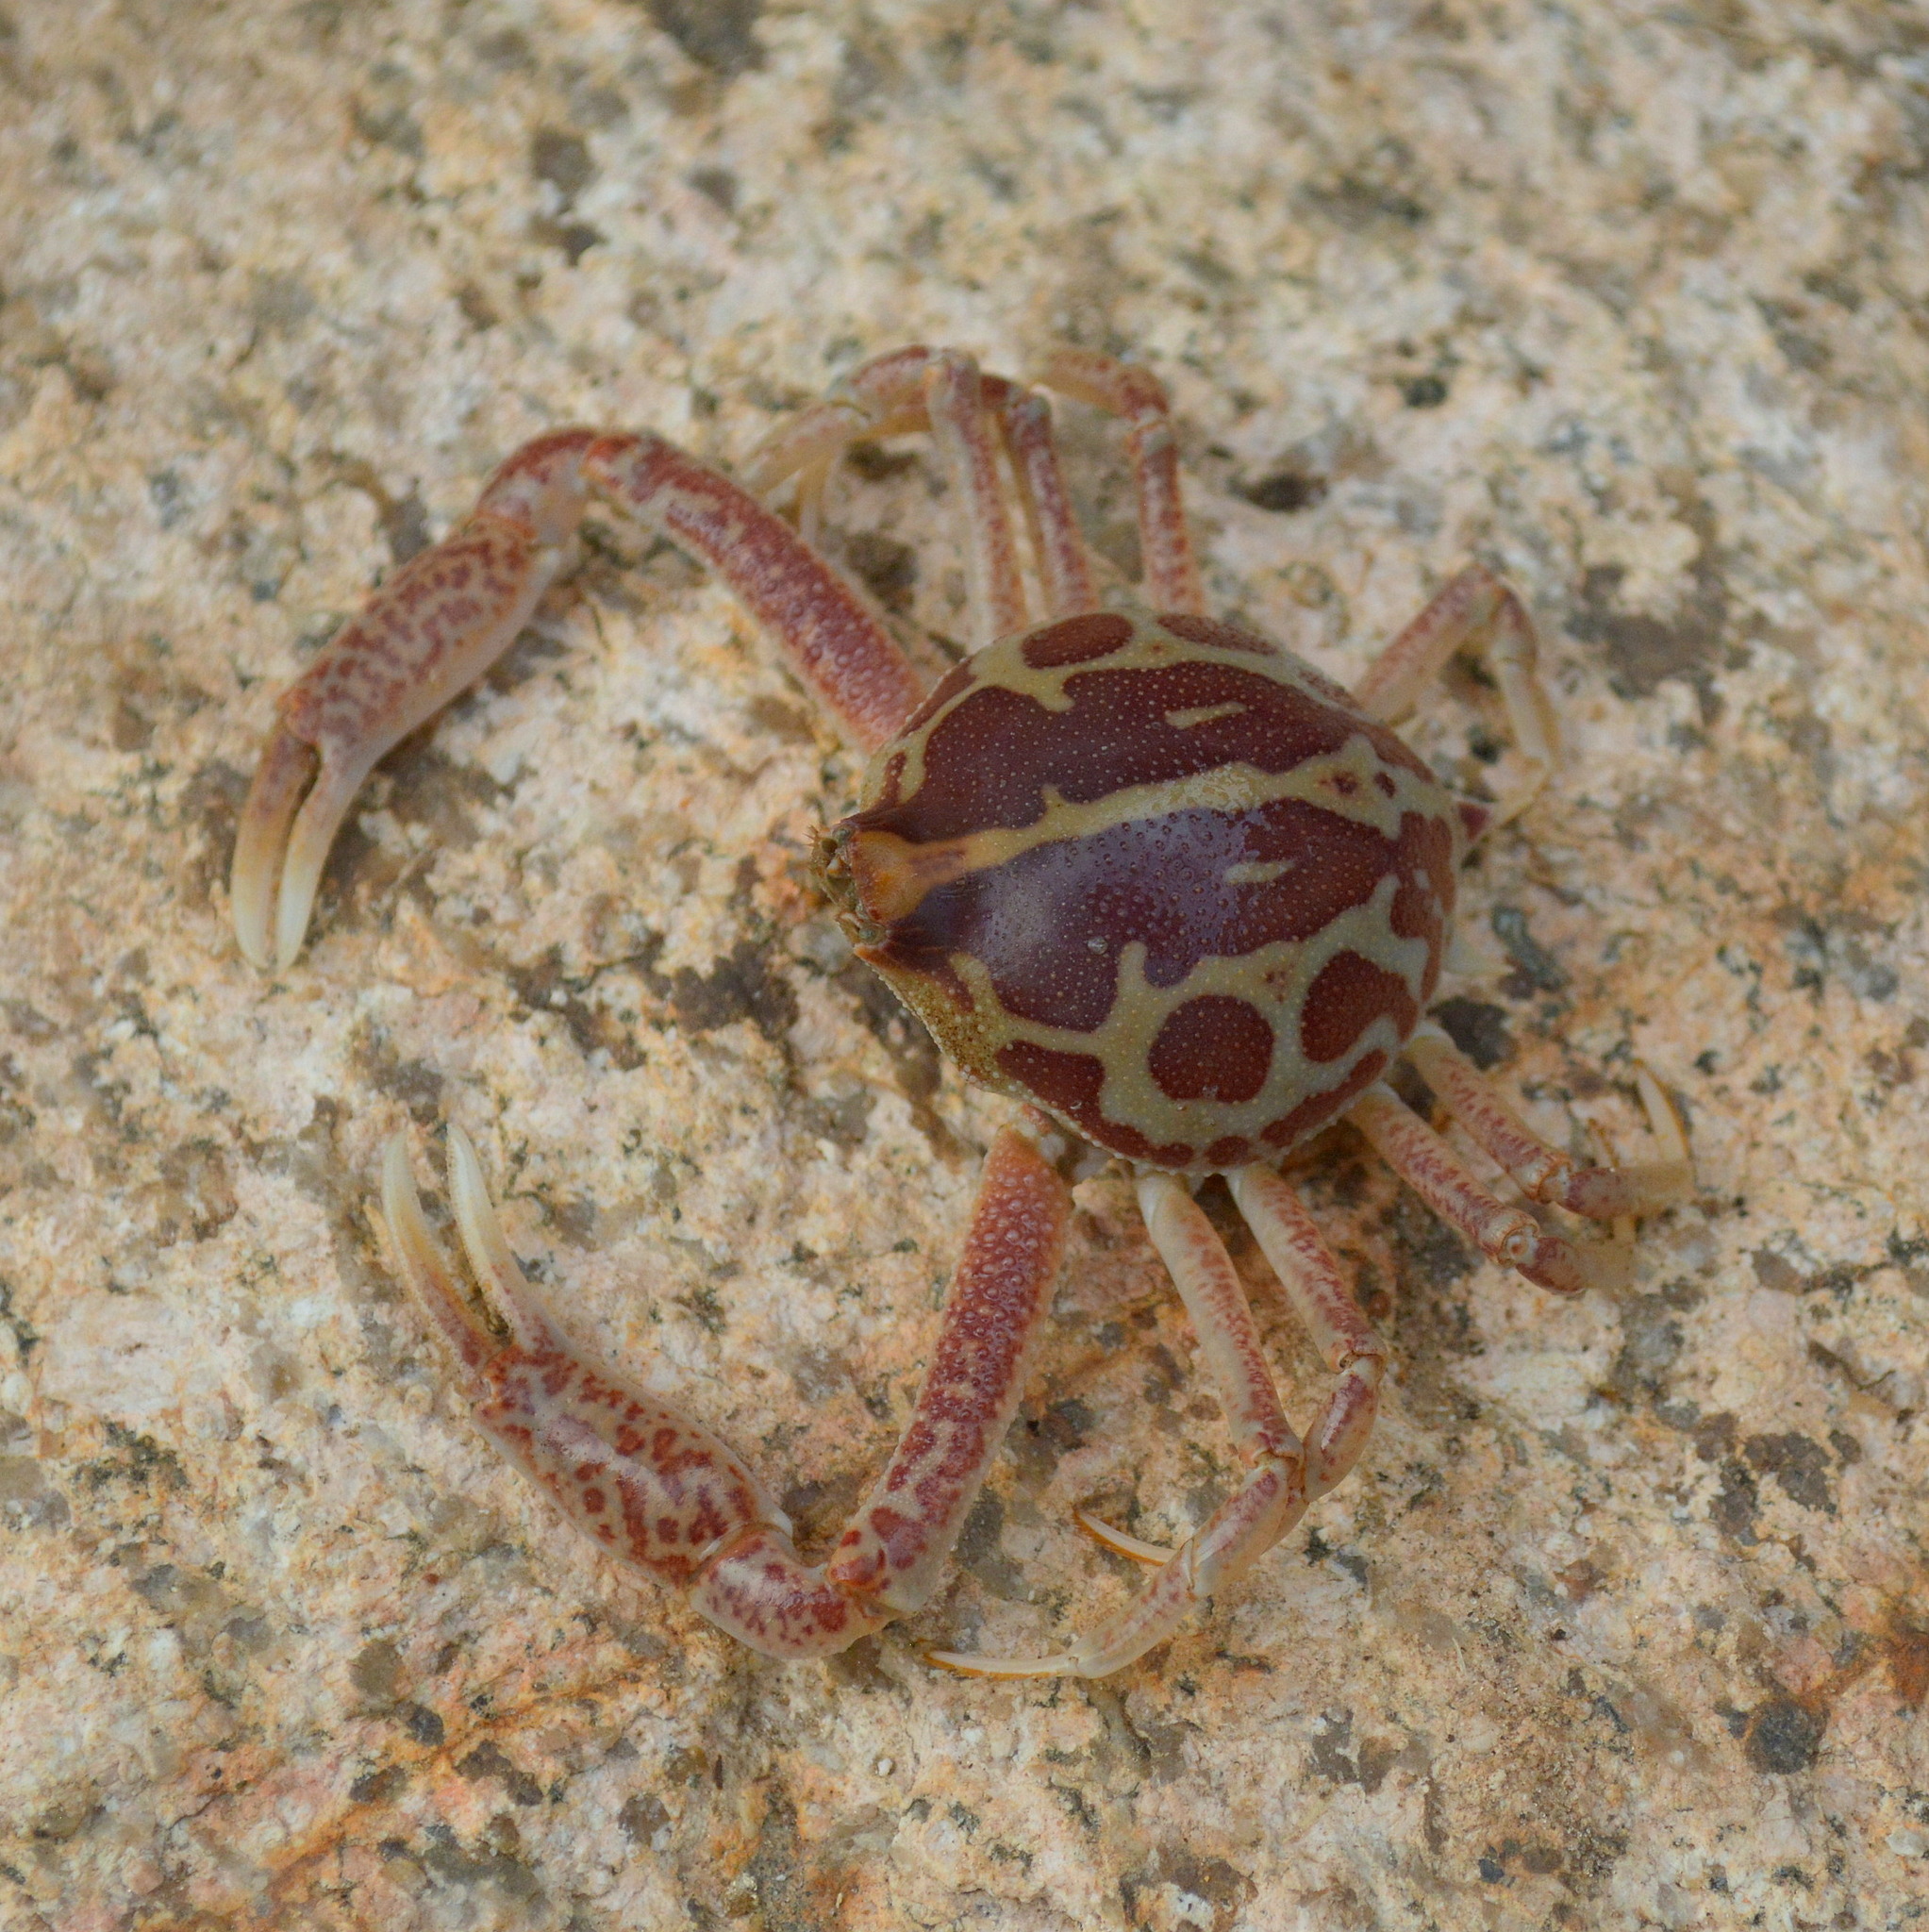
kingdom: Animalia
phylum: Arthropoda
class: Malacostraca
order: Decapoda
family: Leucosiidae
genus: Persephona
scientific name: Persephona mediterranea
